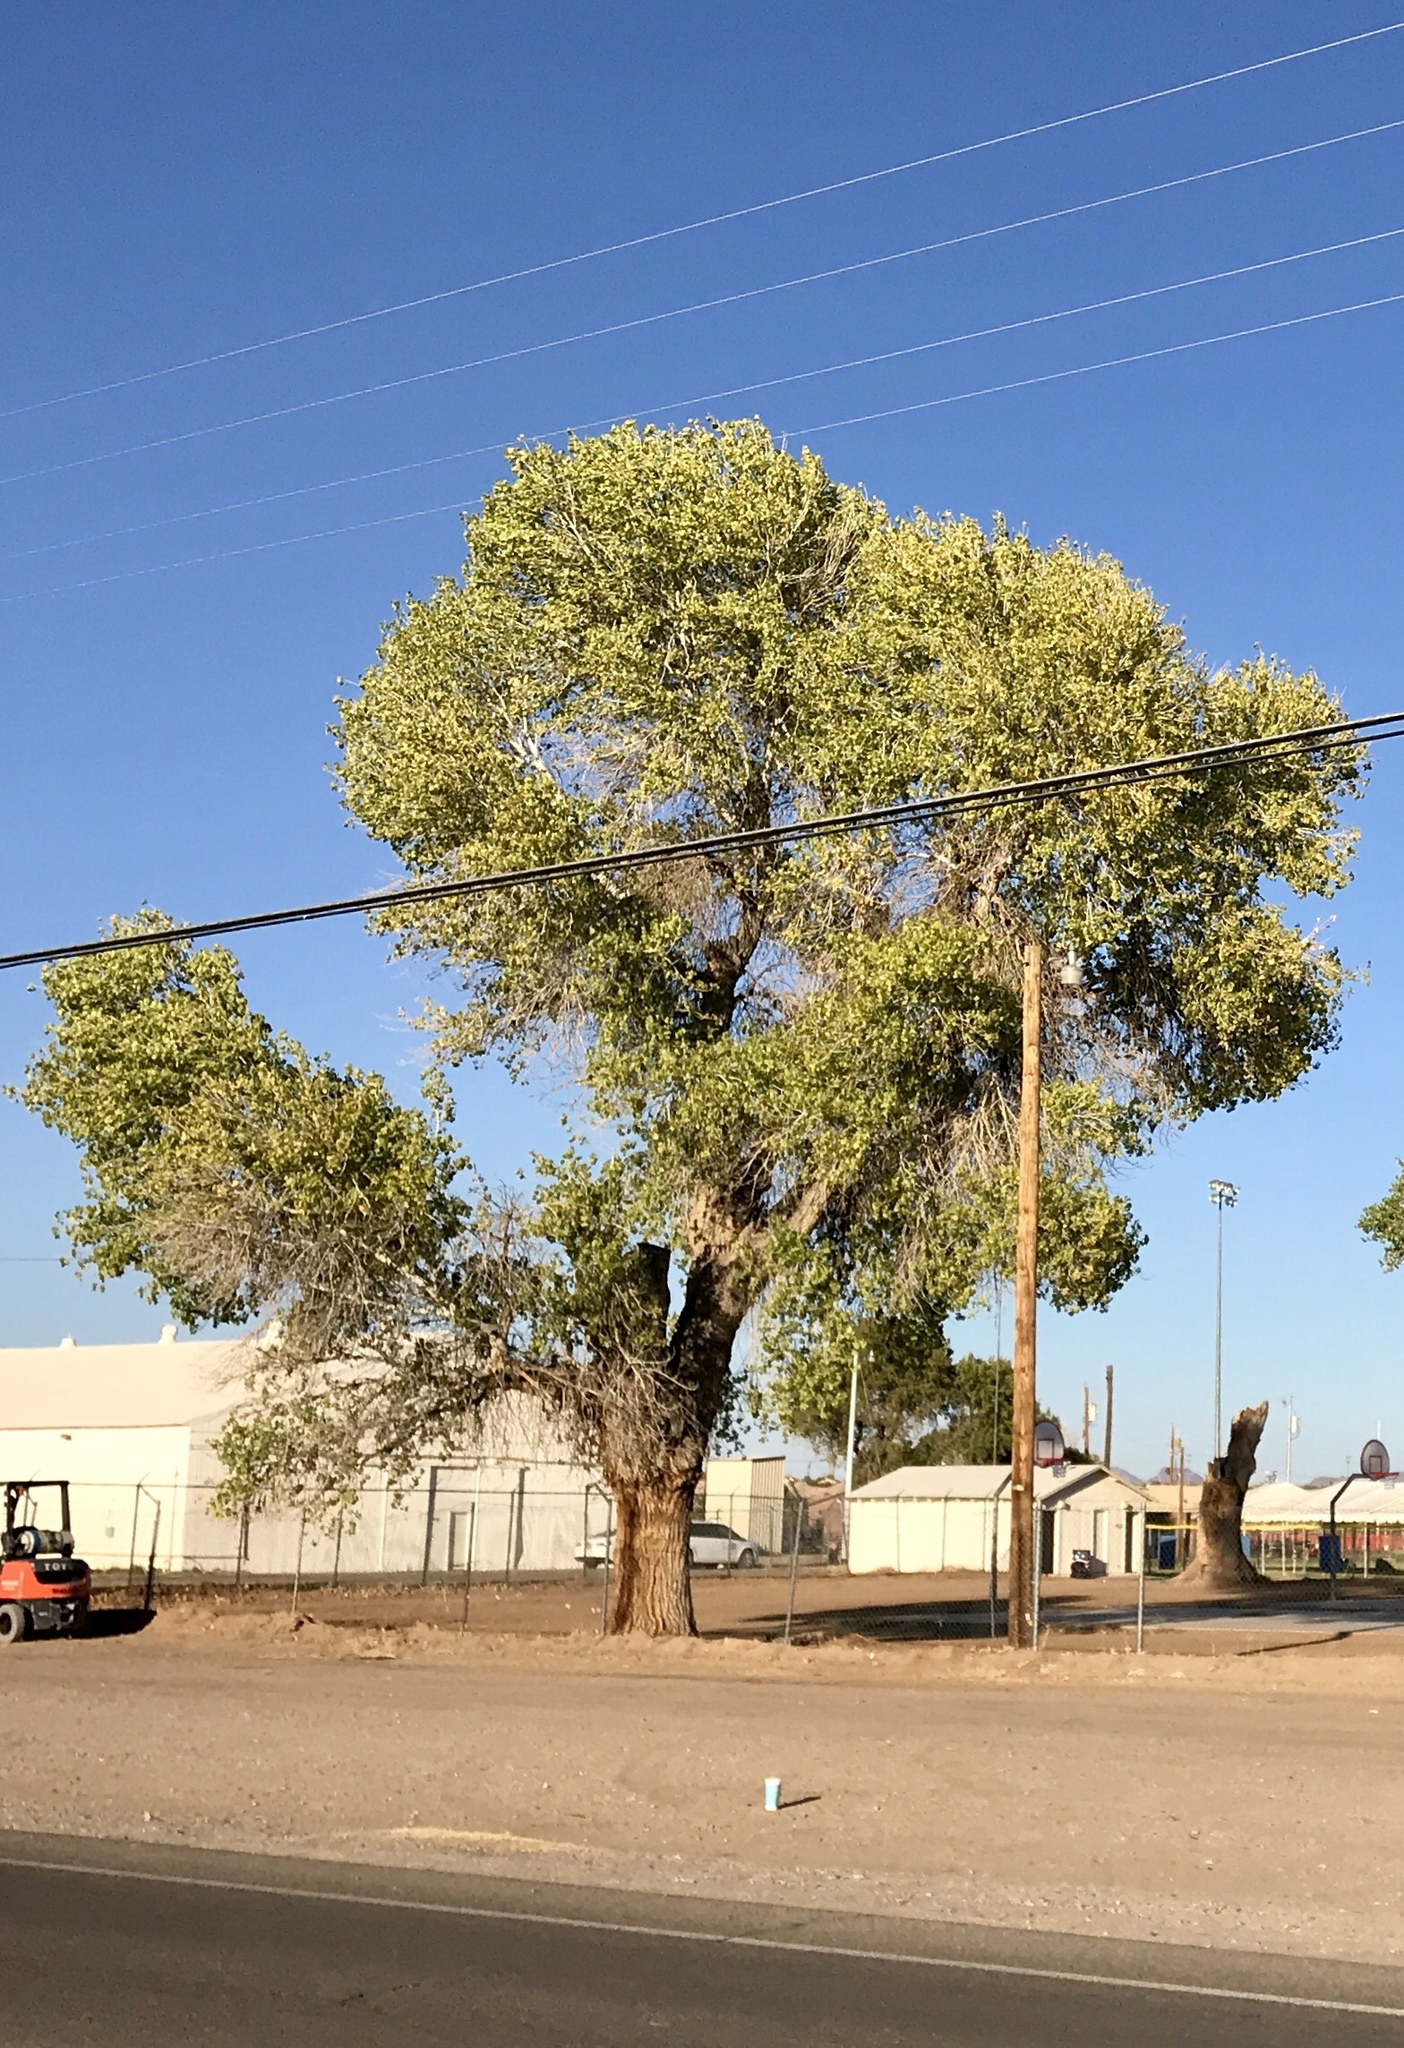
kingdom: Plantae
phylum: Tracheophyta
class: Magnoliopsida
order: Malpighiales
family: Salicaceae
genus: Populus
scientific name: Populus fremontii
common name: Fremont's cottonwood
